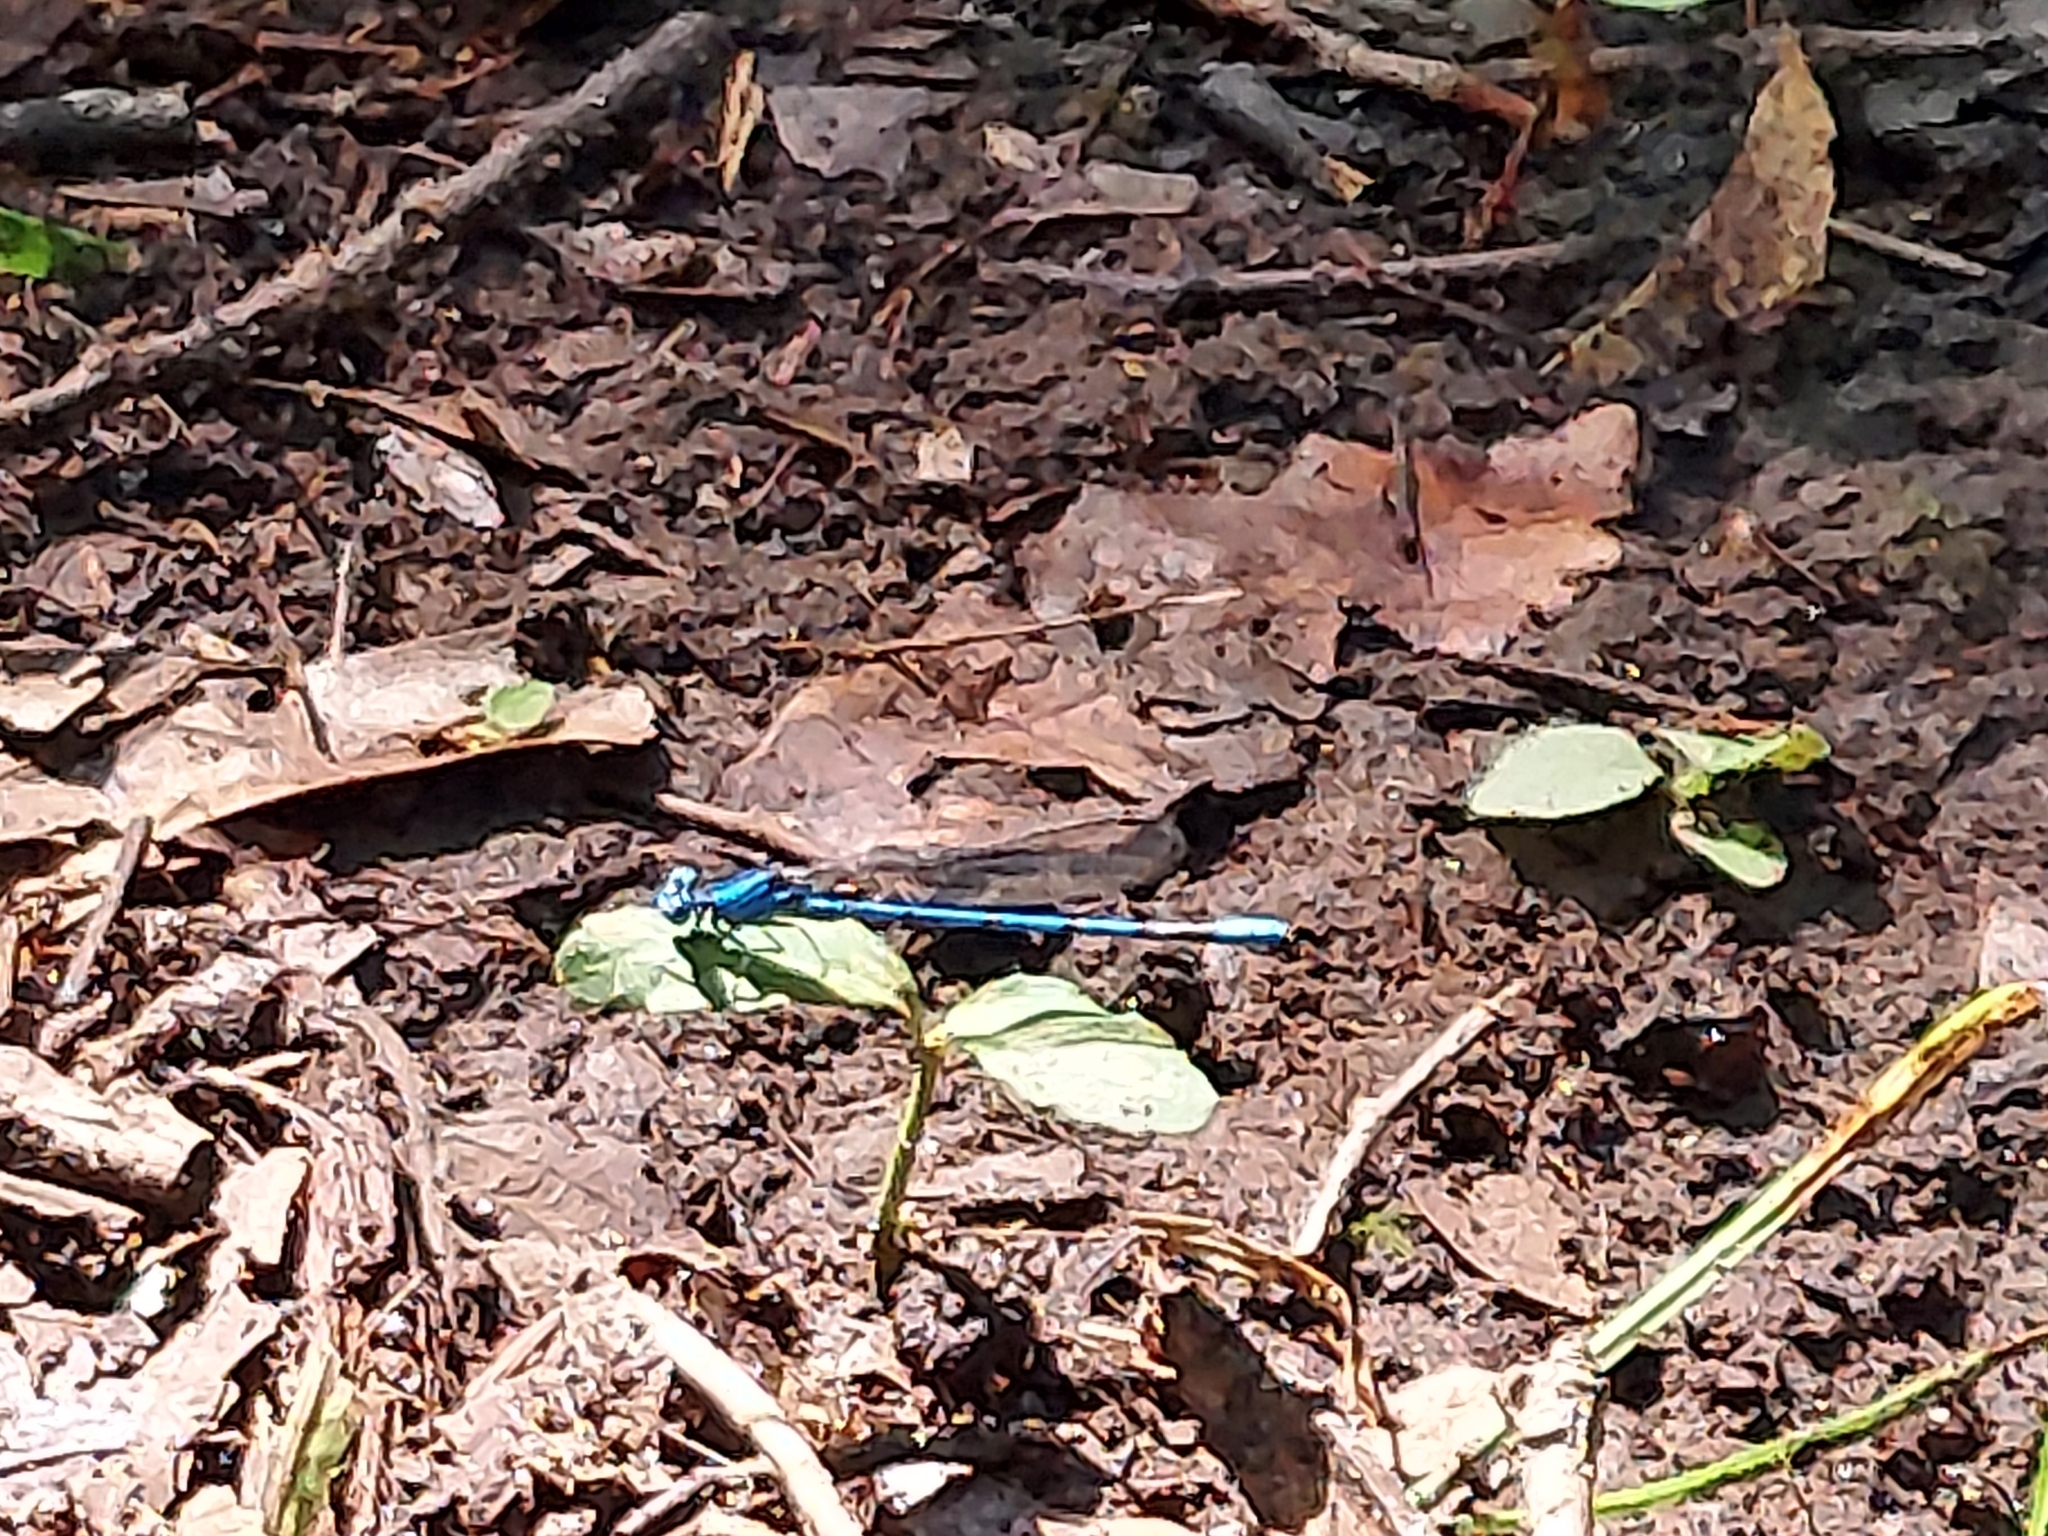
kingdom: Animalia
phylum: Arthropoda
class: Insecta
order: Odonata
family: Coenagrionidae
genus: Argia
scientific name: Argia funebris
